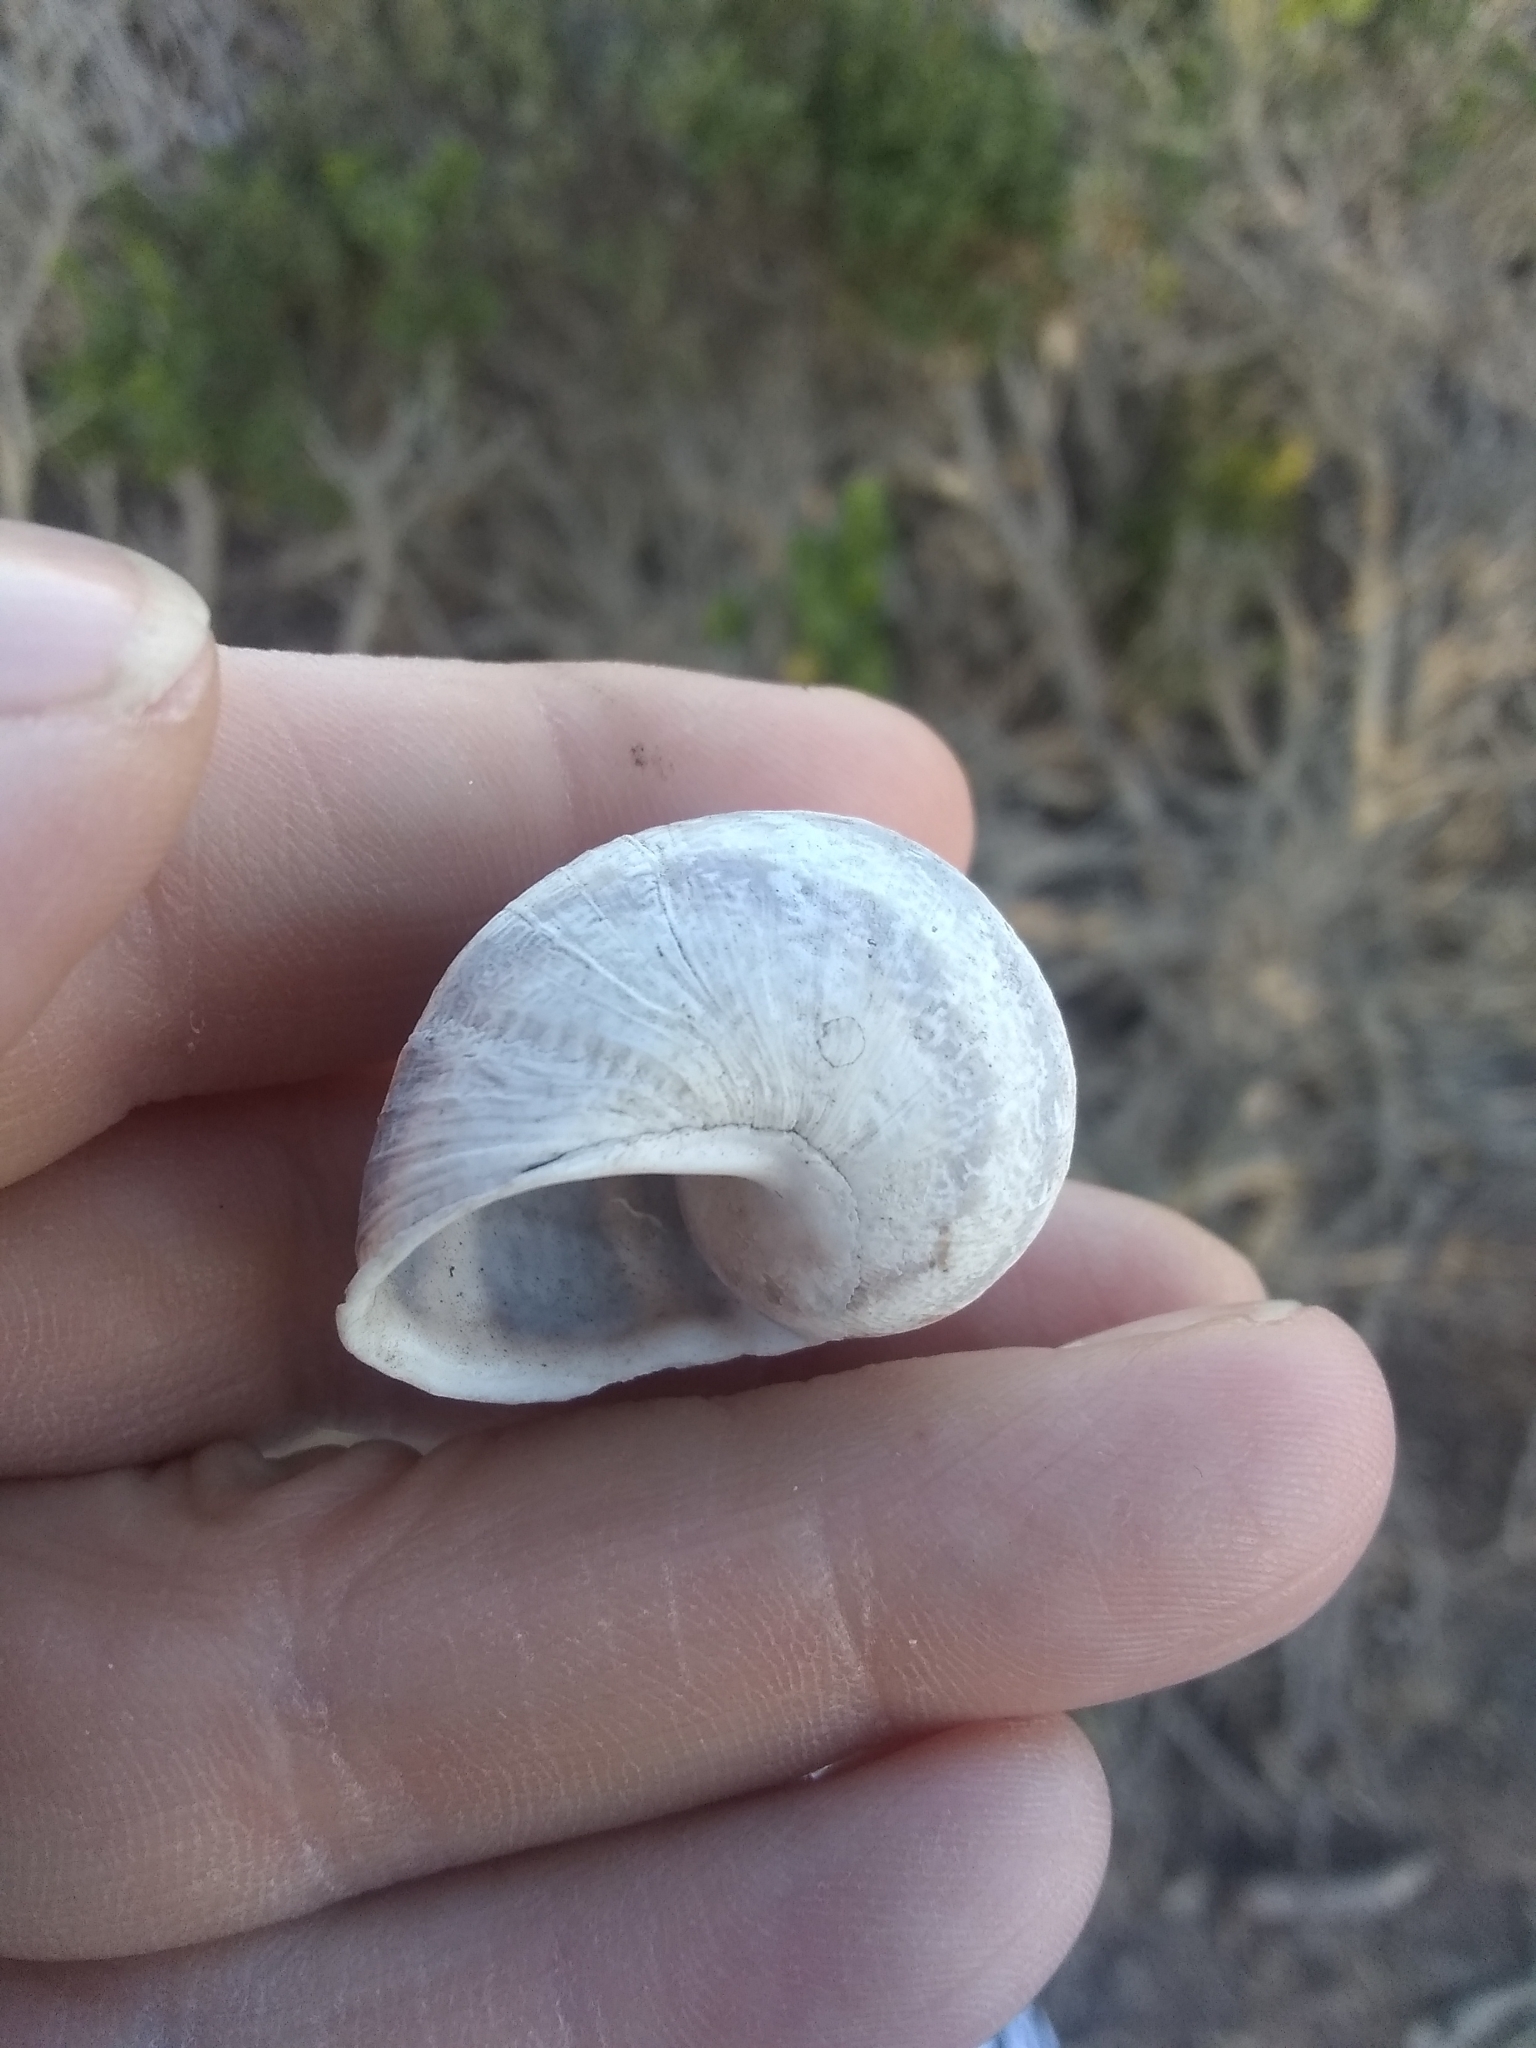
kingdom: Animalia
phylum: Mollusca
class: Gastropoda
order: Stylommatophora
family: Helicidae
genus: Cornu
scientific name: Cornu aspersum
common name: Brown garden snail
